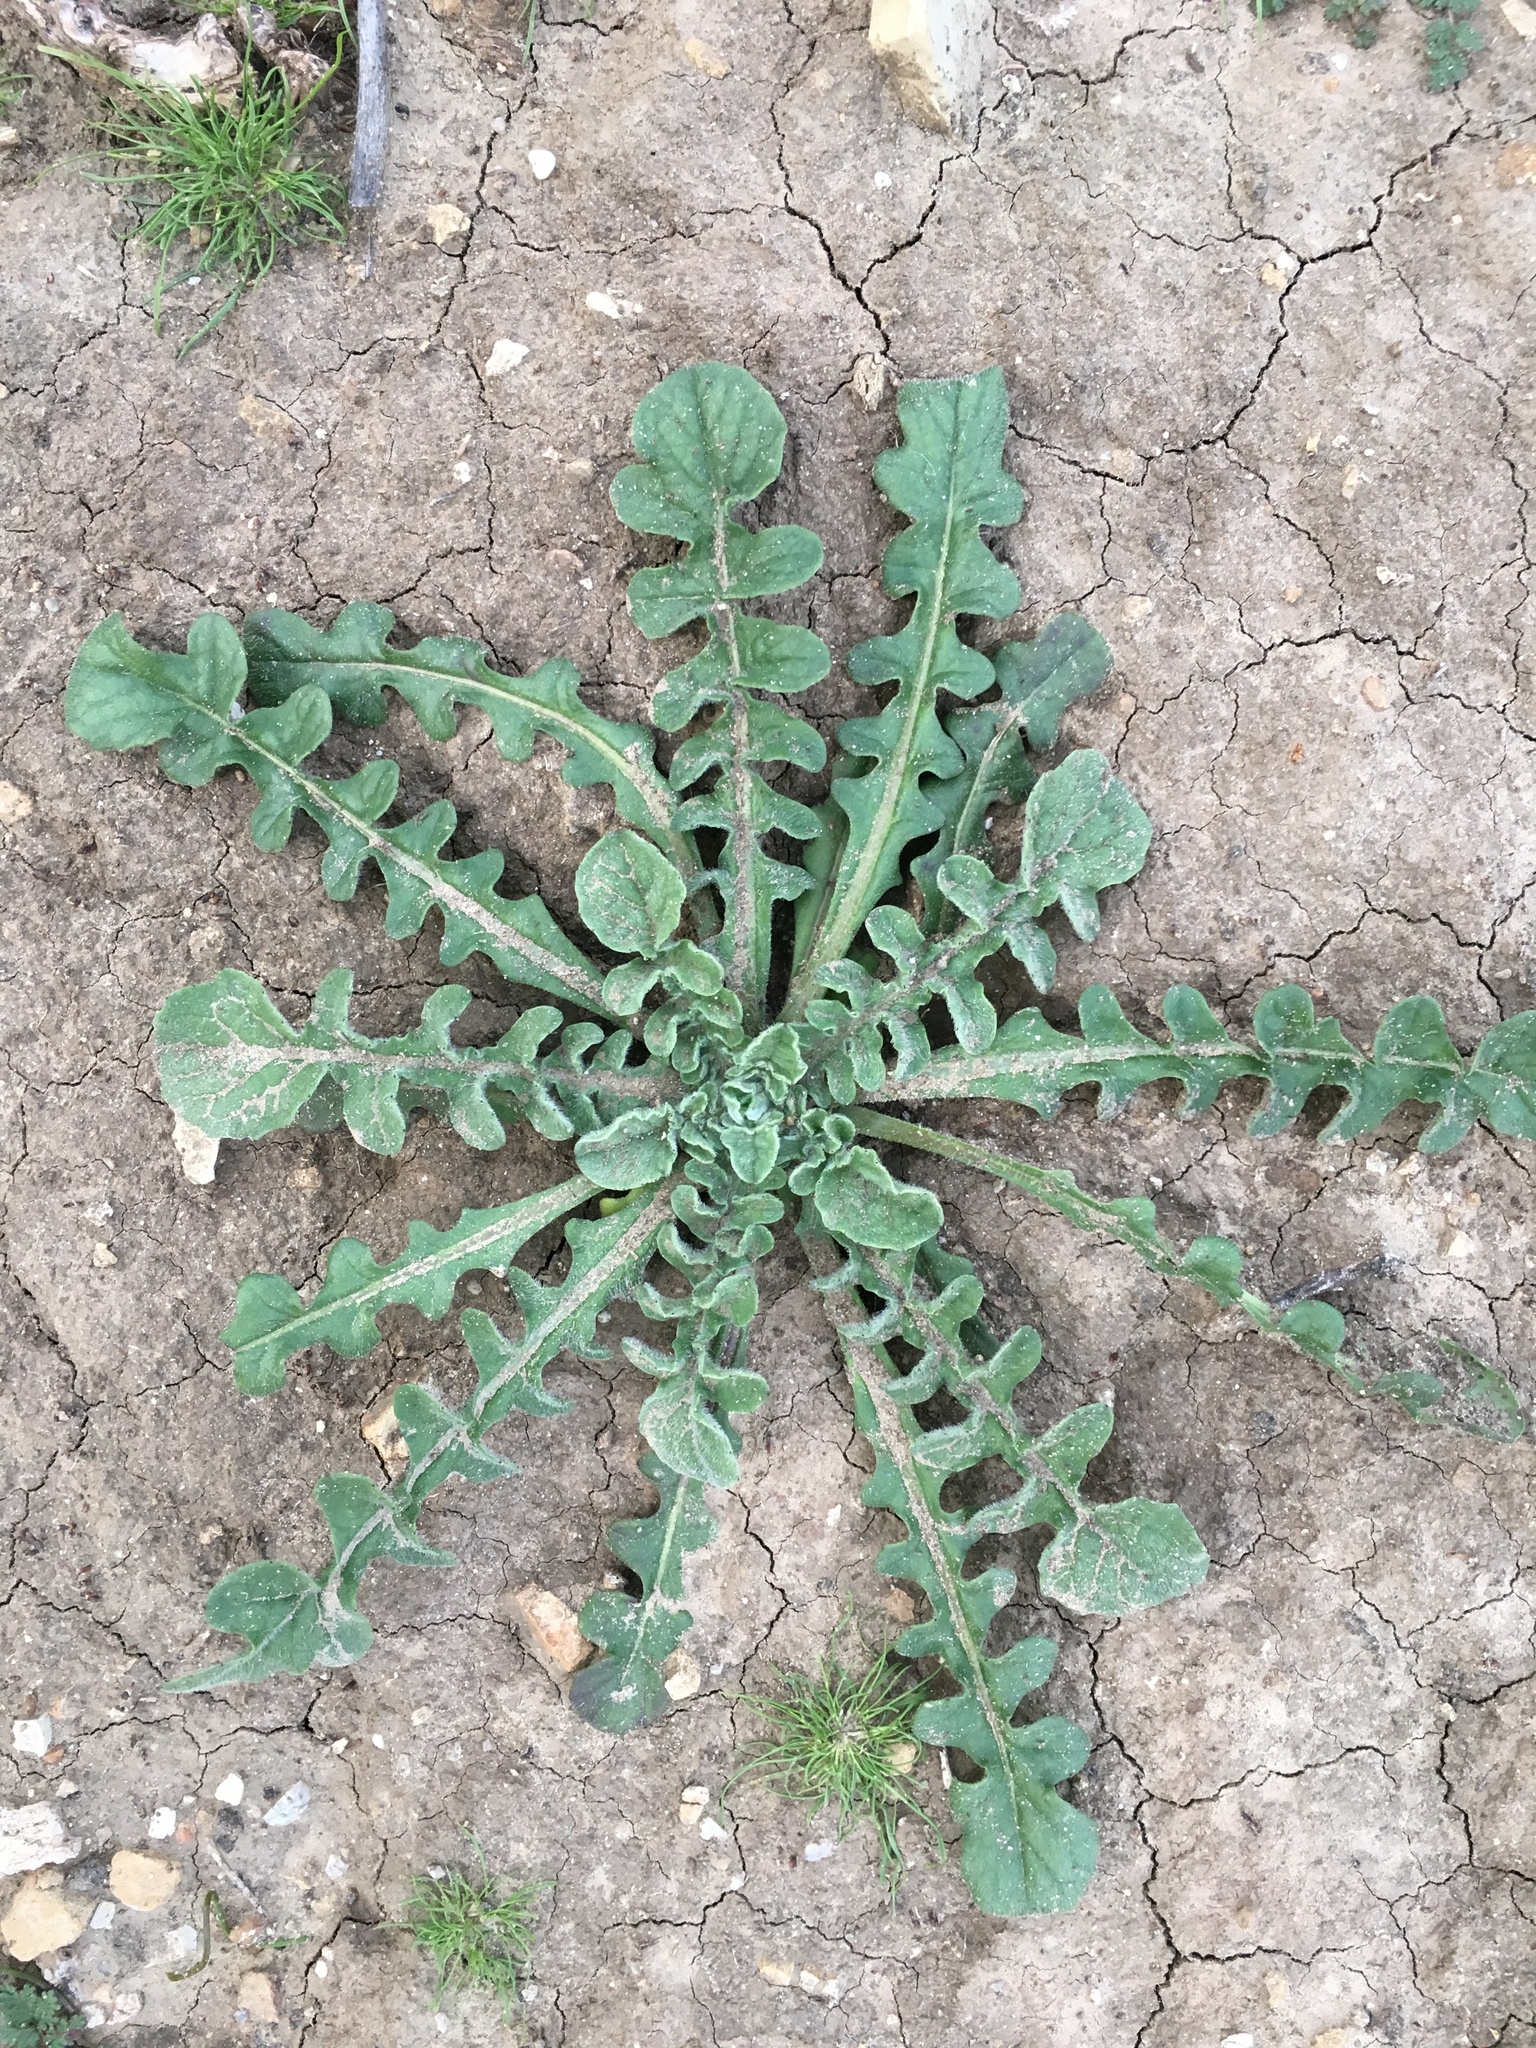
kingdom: Plantae
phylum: Tracheophyta
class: Magnoliopsida
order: Asterales
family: Asteraceae
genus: Centaurea
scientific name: Centaurea melitensis
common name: Maltese star-thistle
